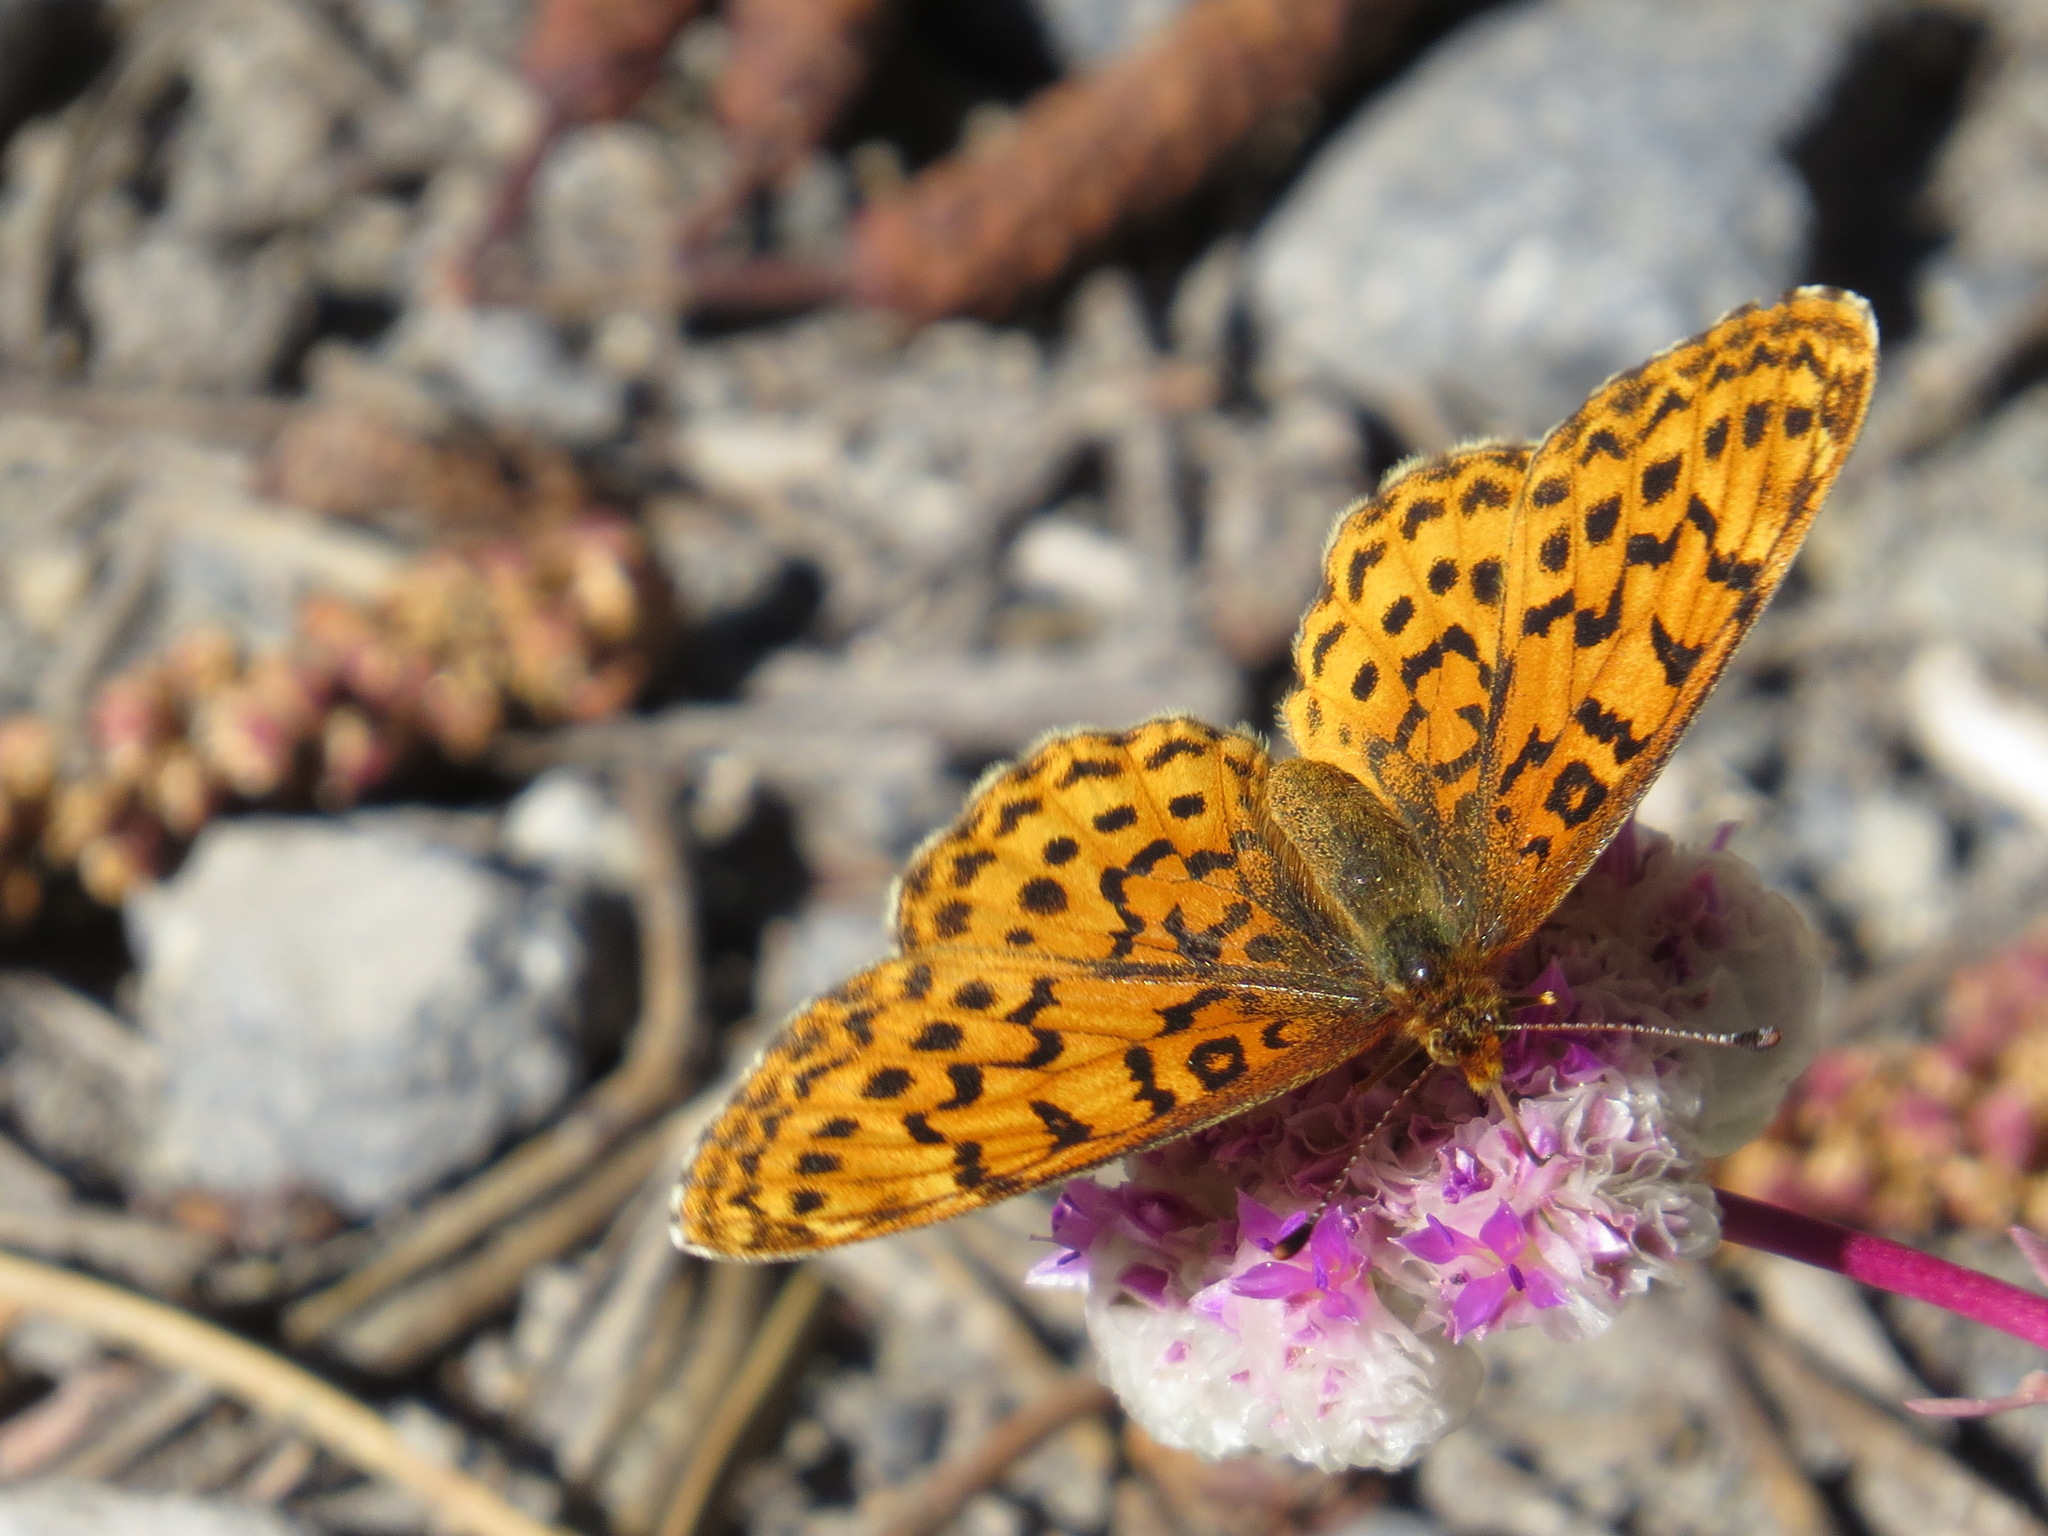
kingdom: Animalia
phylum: Arthropoda
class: Insecta
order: Lepidoptera
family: Nymphalidae
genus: Boloria
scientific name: Boloria epithore
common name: Pacific fritillary
